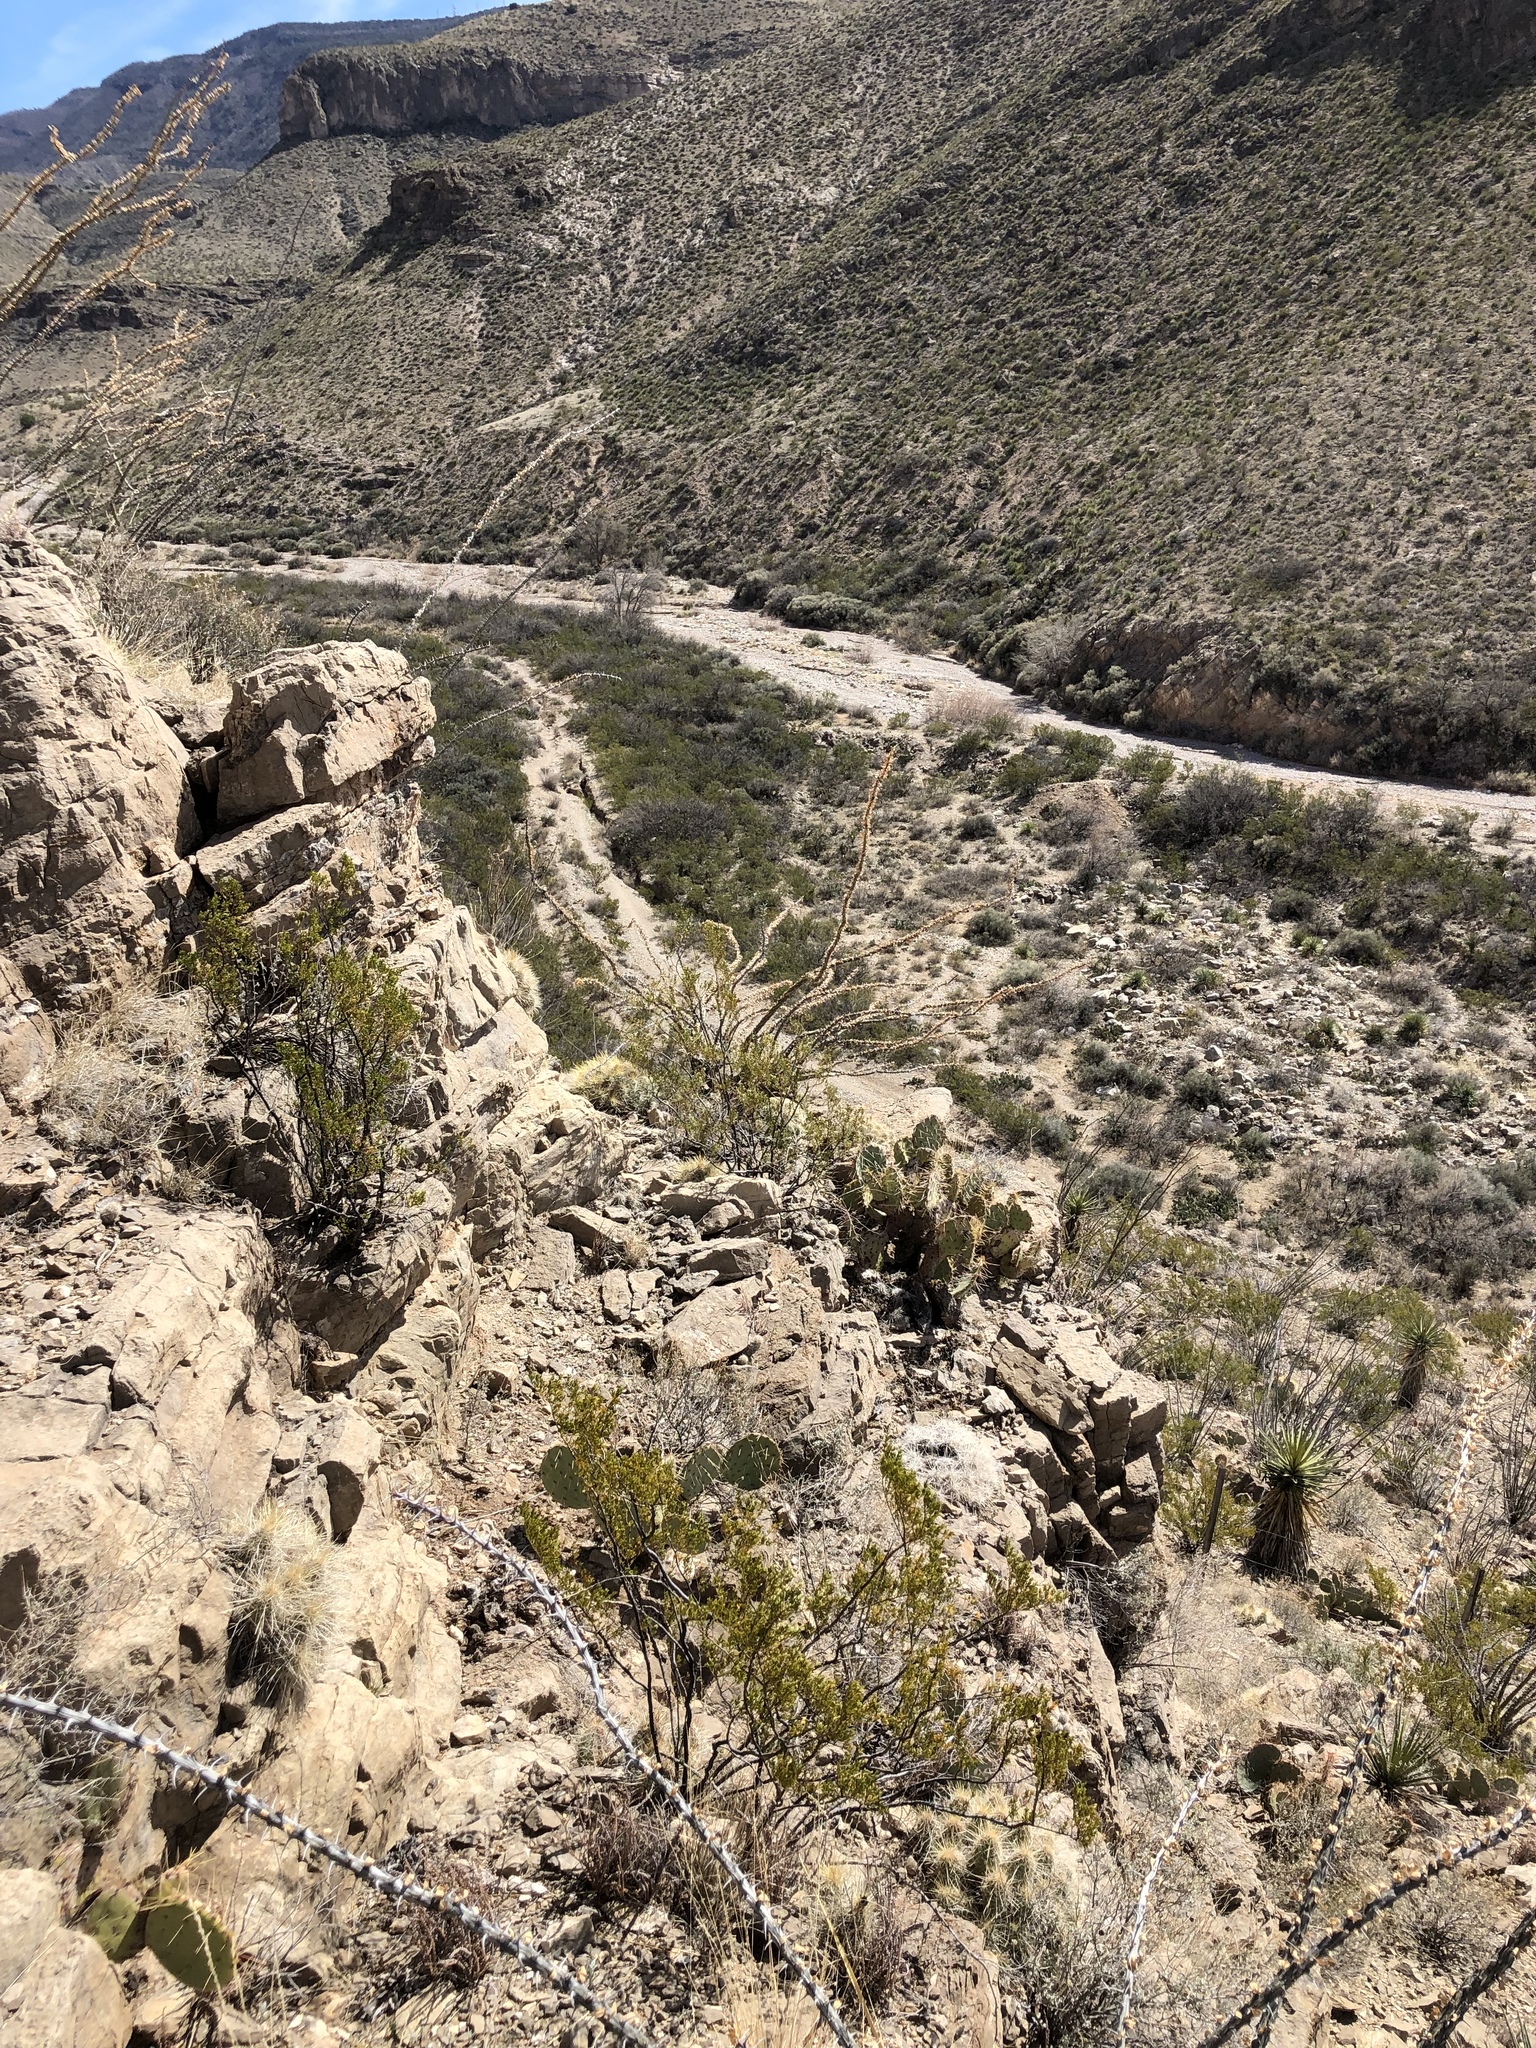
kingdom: Plantae
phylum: Tracheophyta
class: Magnoliopsida
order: Ericales
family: Fouquieriaceae
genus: Fouquieria
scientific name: Fouquieria splendens
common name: Vine-cactus
